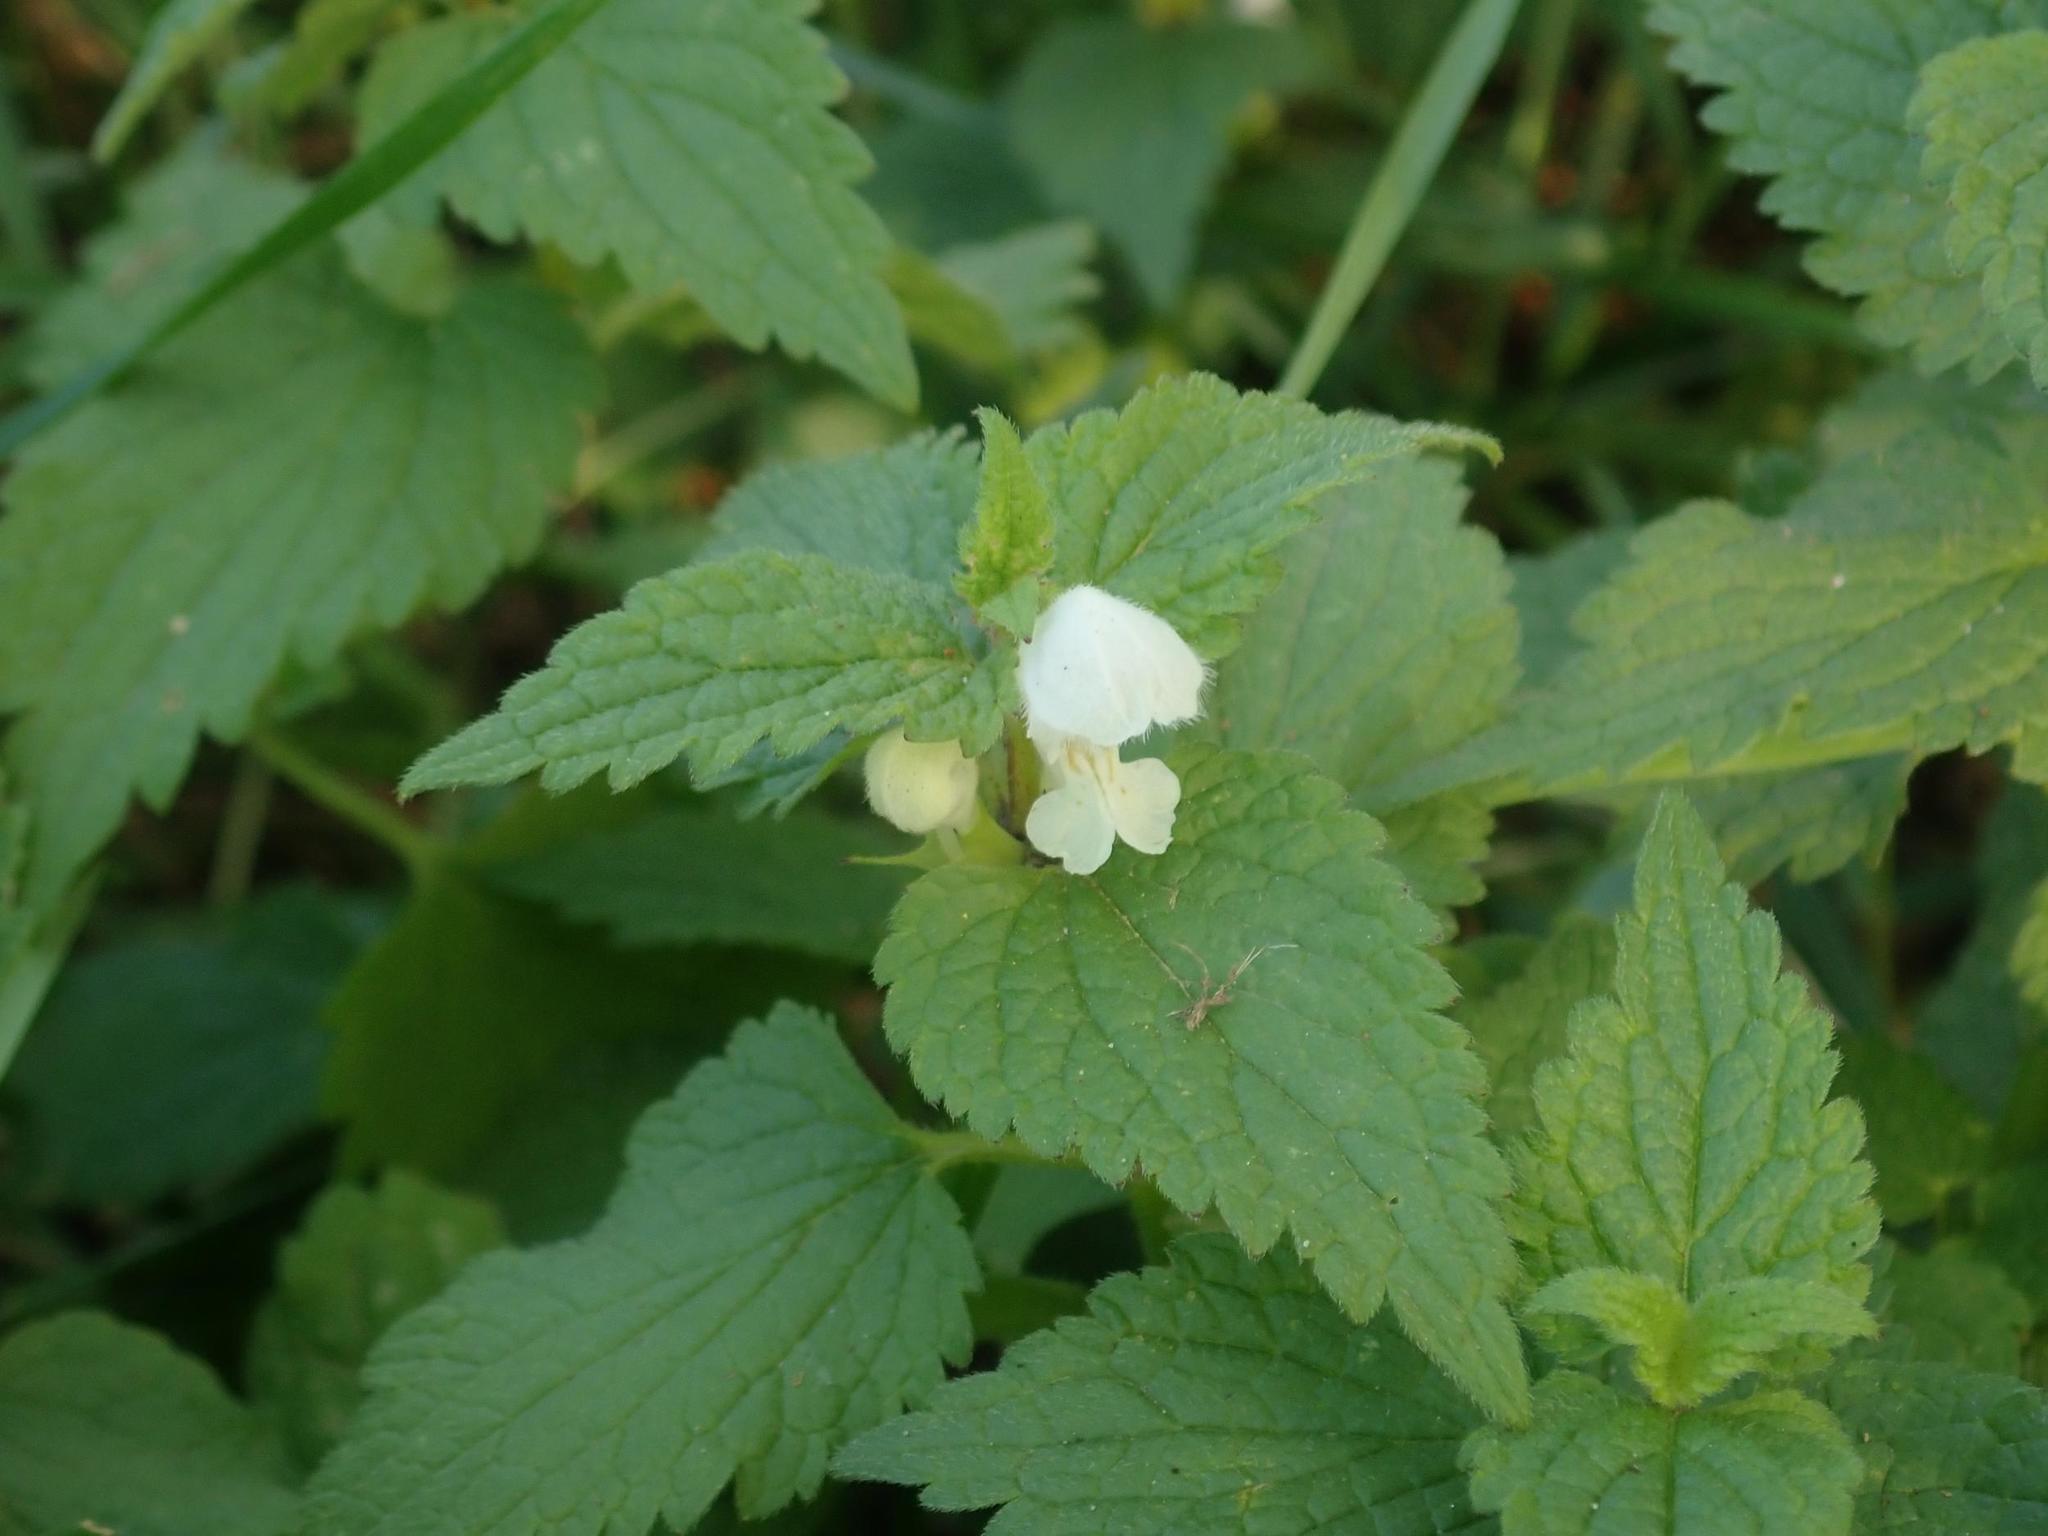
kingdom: Plantae
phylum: Tracheophyta
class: Magnoliopsida
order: Lamiales
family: Lamiaceae
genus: Lamium
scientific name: Lamium album
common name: White dead-nettle
